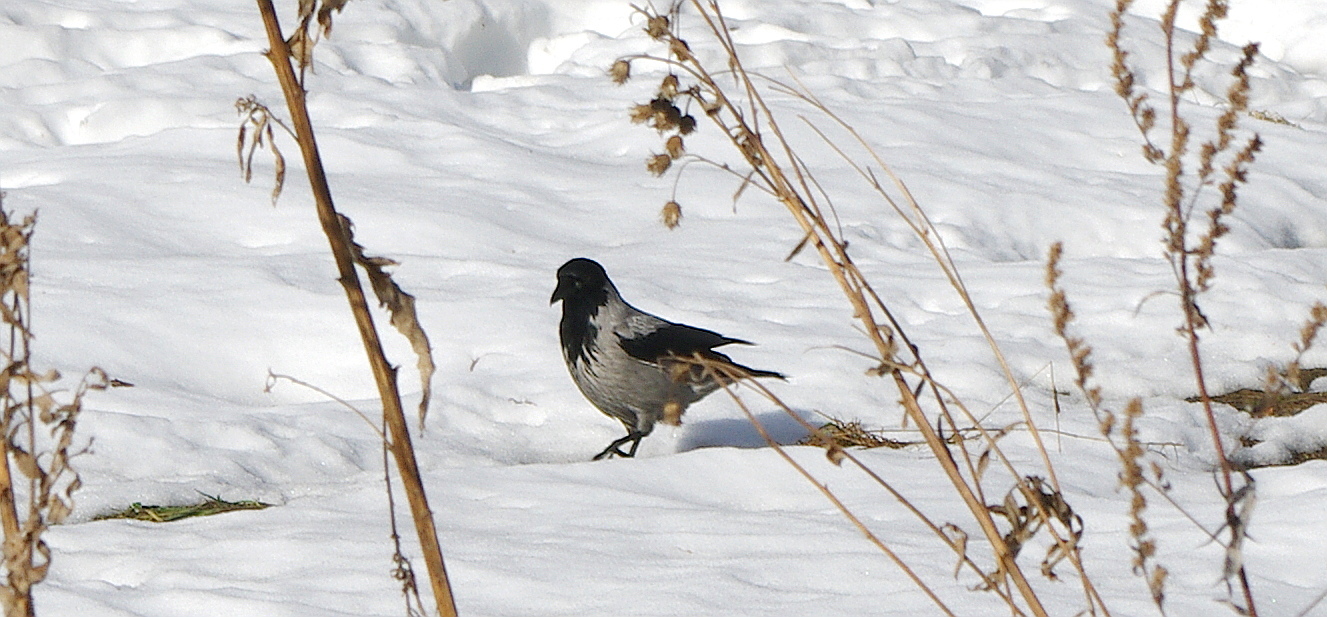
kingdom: Animalia
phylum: Chordata
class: Aves
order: Passeriformes
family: Corvidae
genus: Corvus
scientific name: Corvus cornix
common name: Hooded crow
